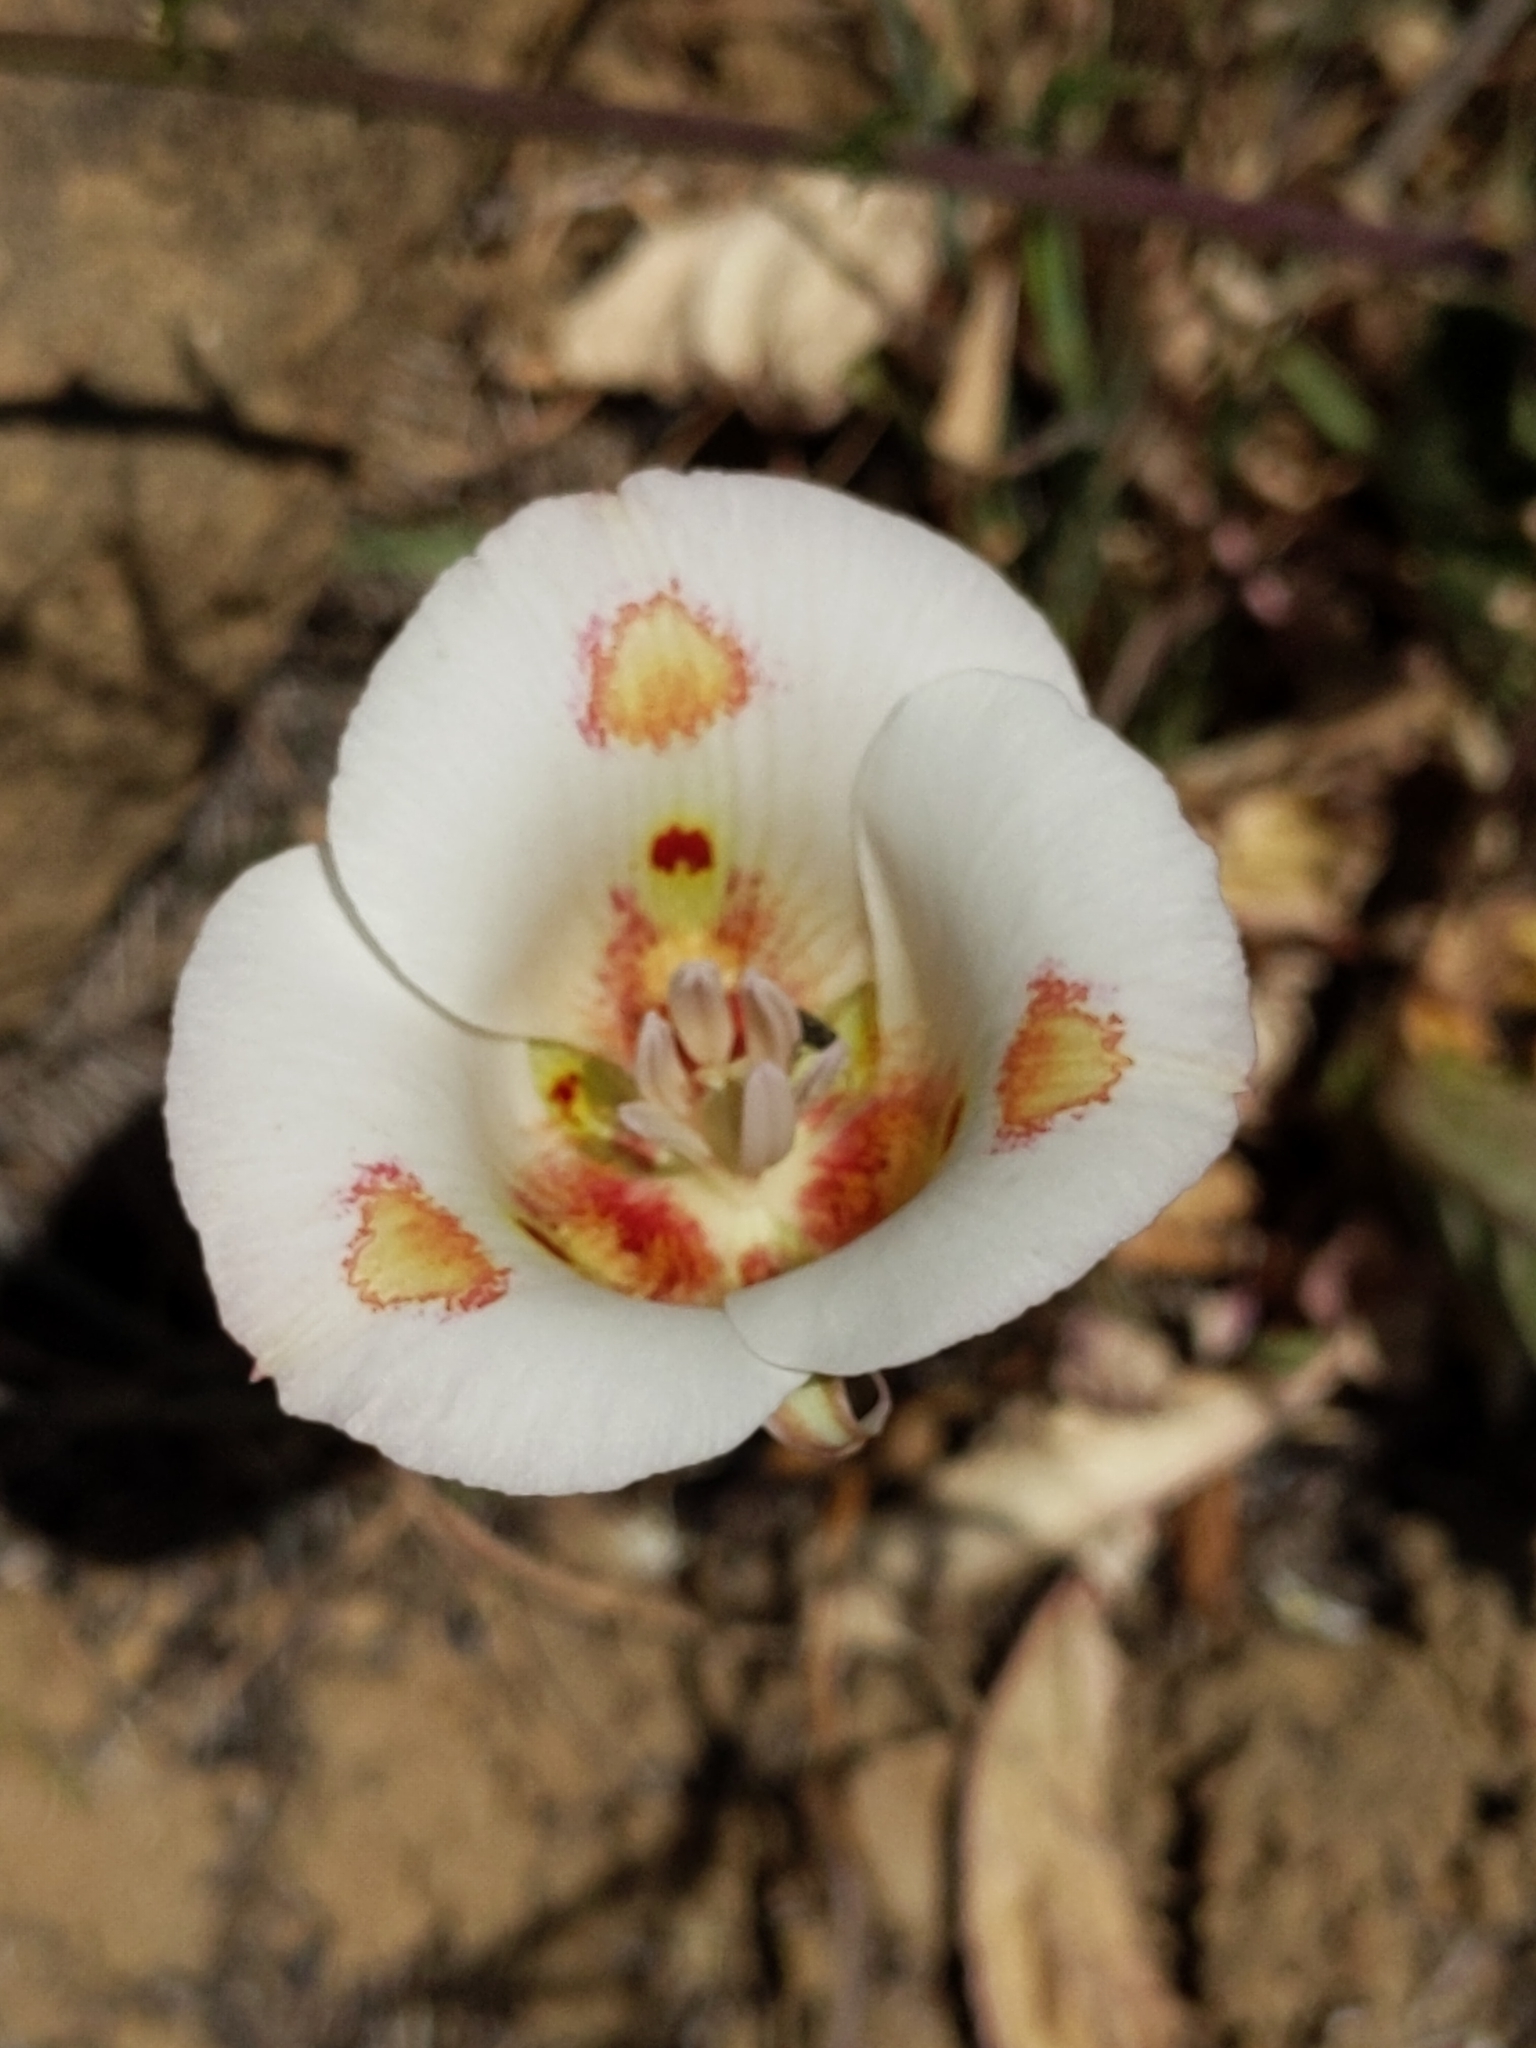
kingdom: Plantae
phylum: Tracheophyta
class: Liliopsida
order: Liliales
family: Liliaceae
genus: Calochortus
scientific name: Calochortus venustus
